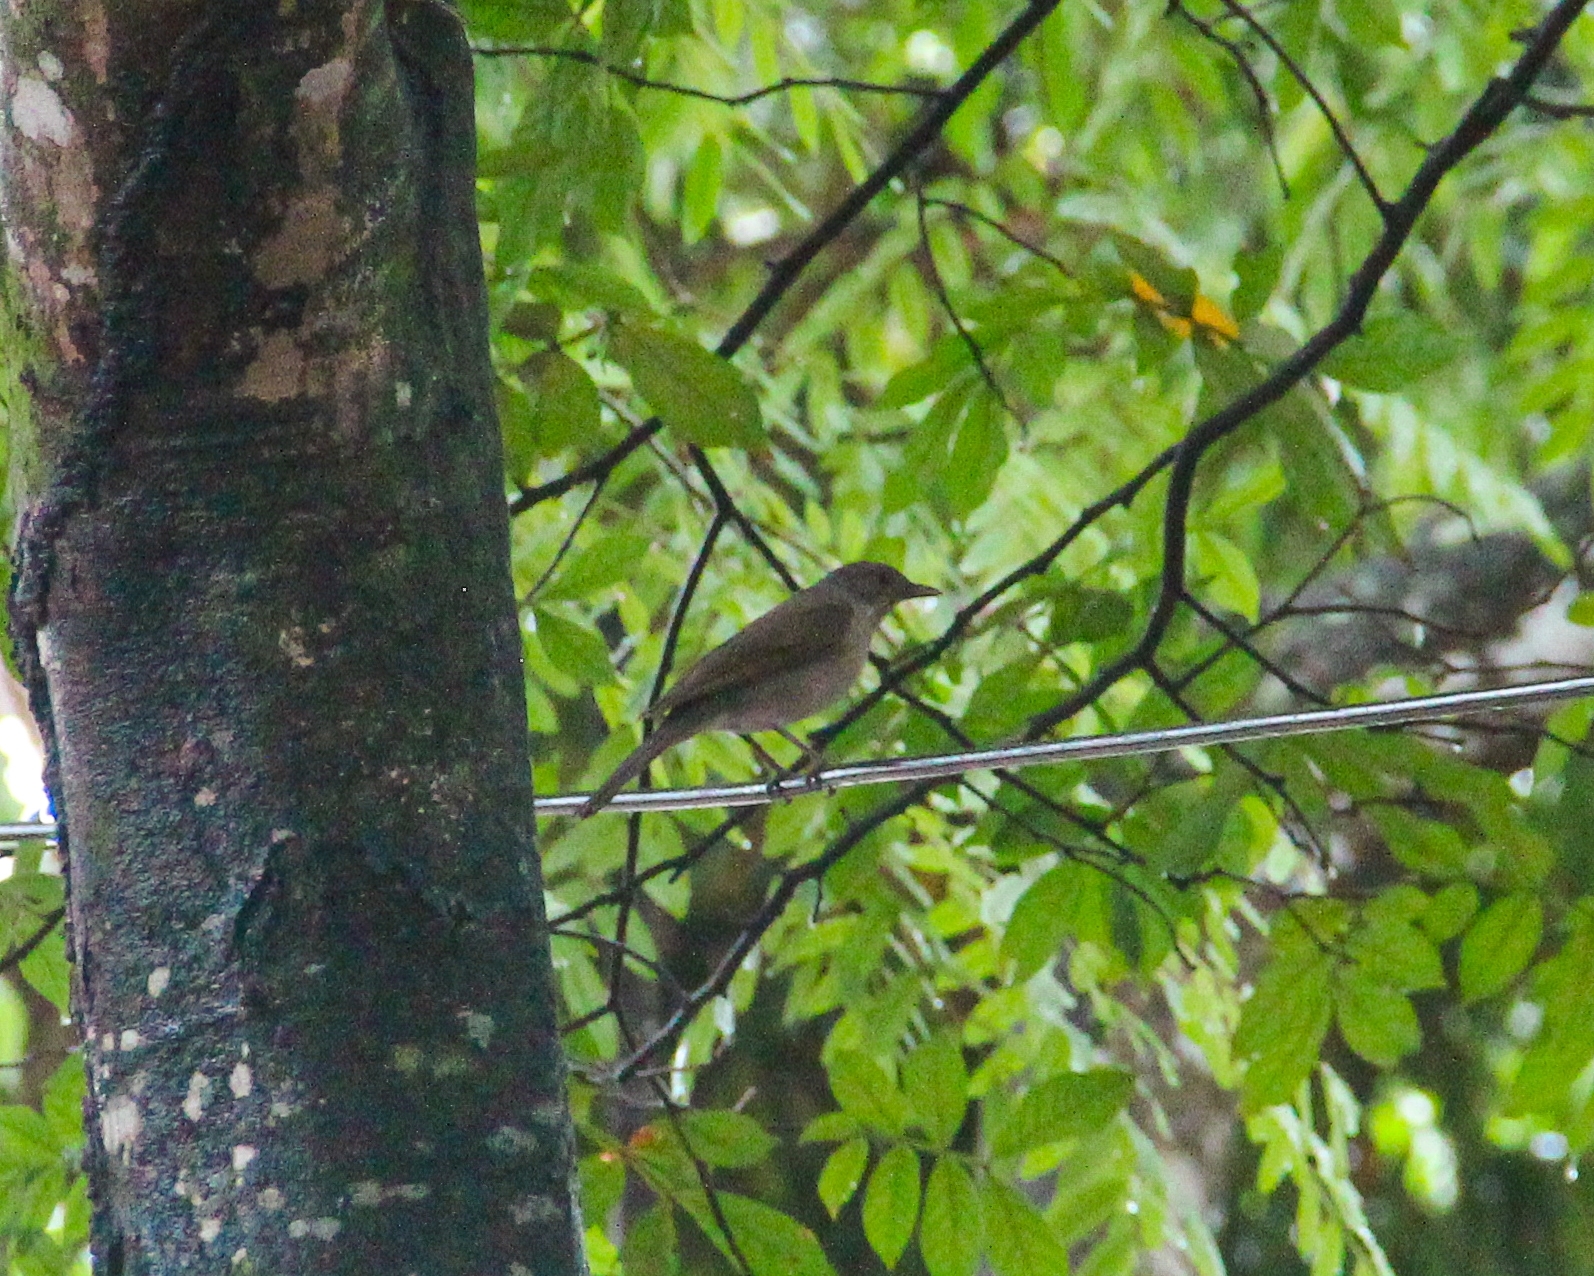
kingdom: Animalia
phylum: Chordata
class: Aves
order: Passeriformes
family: Turdidae
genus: Turdus
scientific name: Turdus leucomelas
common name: Pale-breasted thrush
